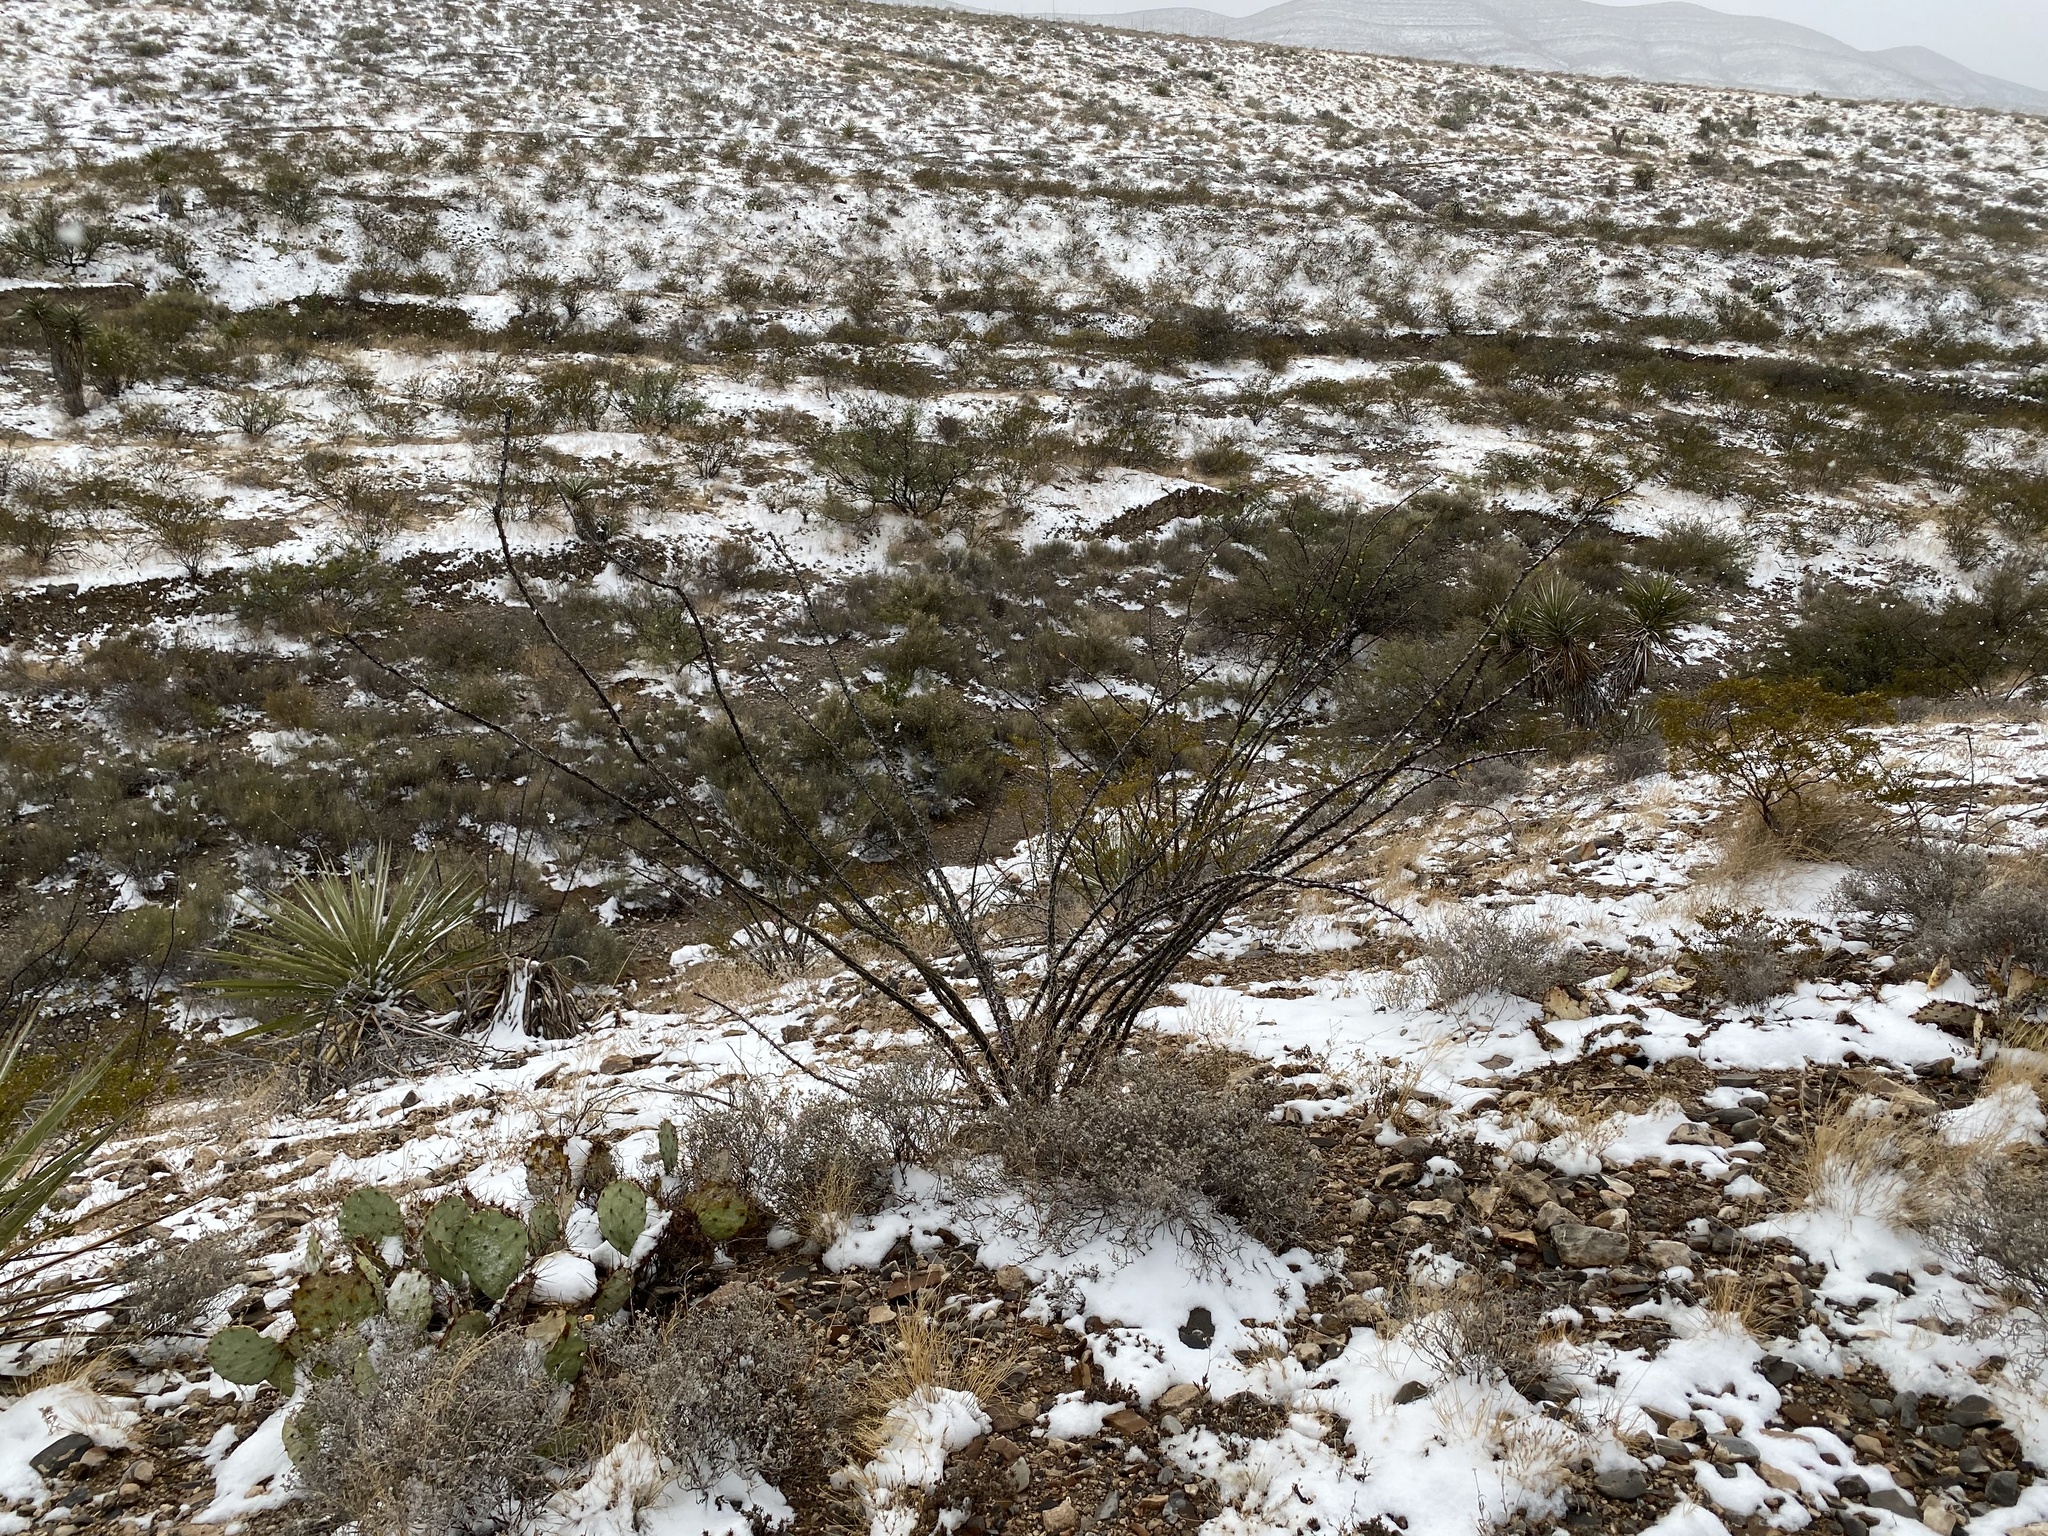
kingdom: Plantae
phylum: Tracheophyta
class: Magnoliopsida
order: Ericales
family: Fouquieriaceae
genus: Fouquieria
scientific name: Fouquieria splendens
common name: Vine-cactus
